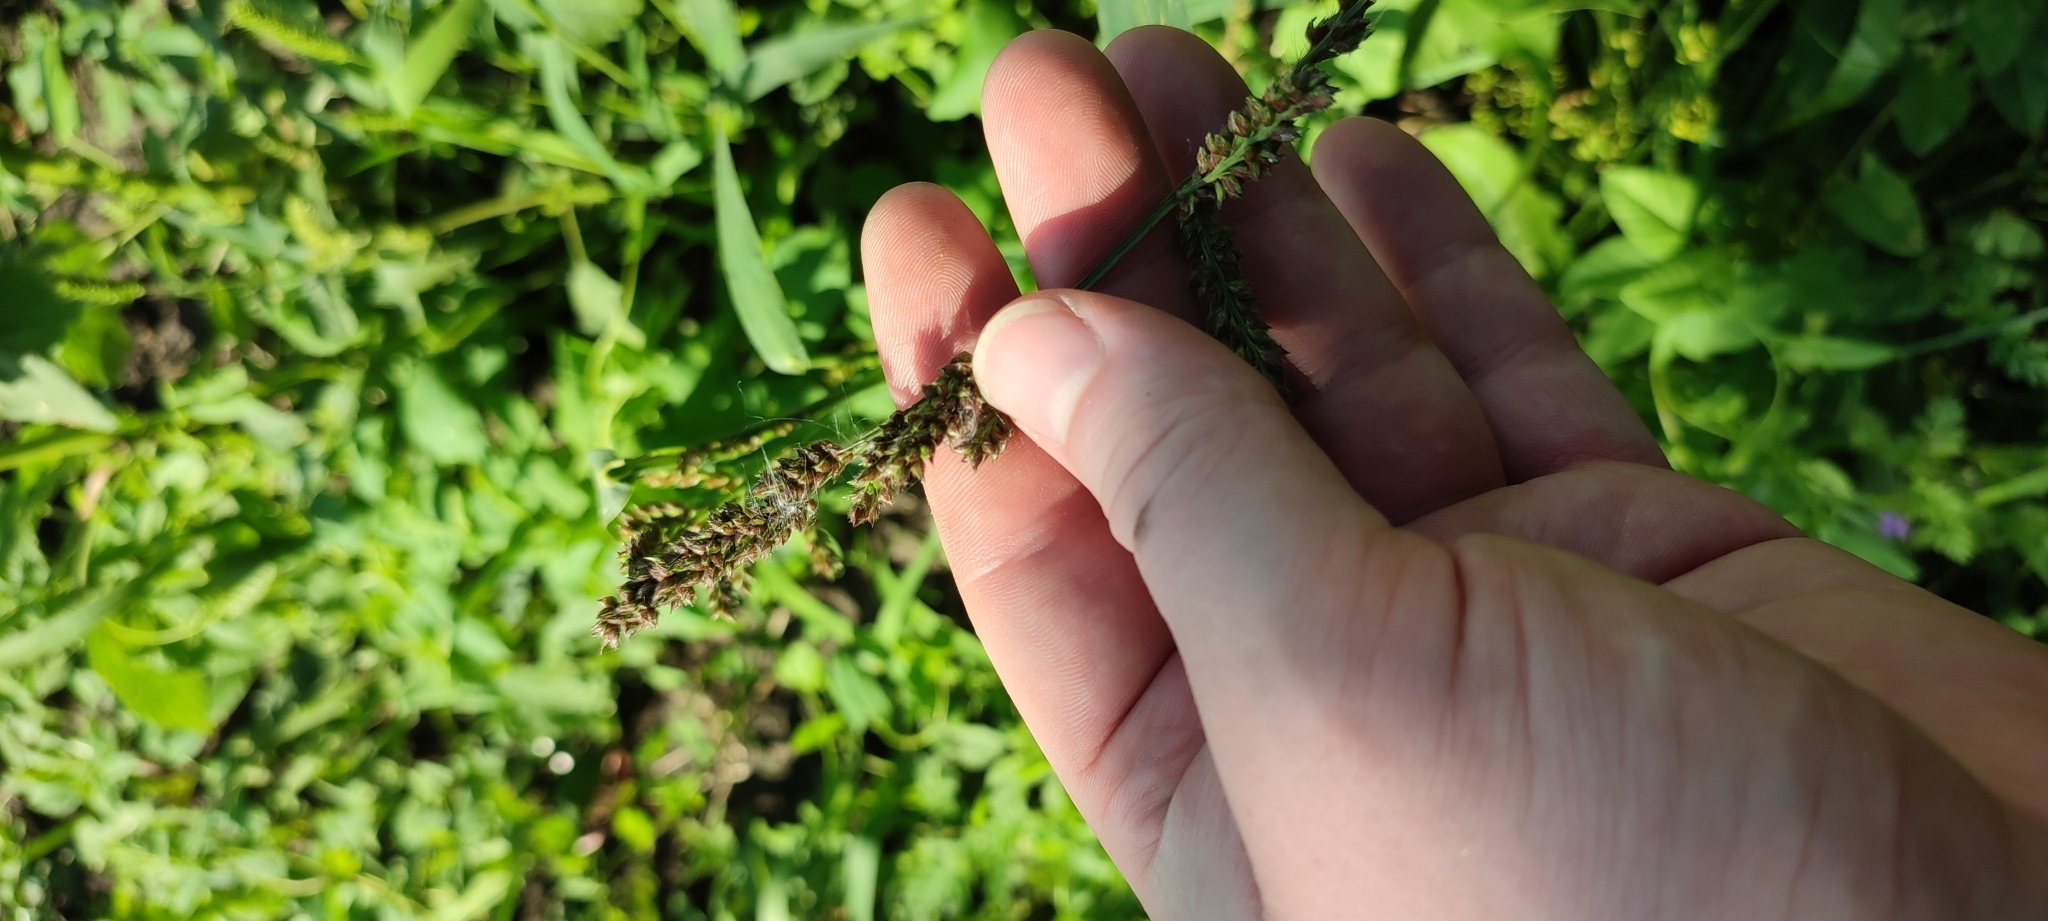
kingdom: Plantae
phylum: Tracheophyta
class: Liliopsida
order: Poales
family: Poaceae
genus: Echinochloa
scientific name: Echinochloa crus-galli
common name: Cockspur
